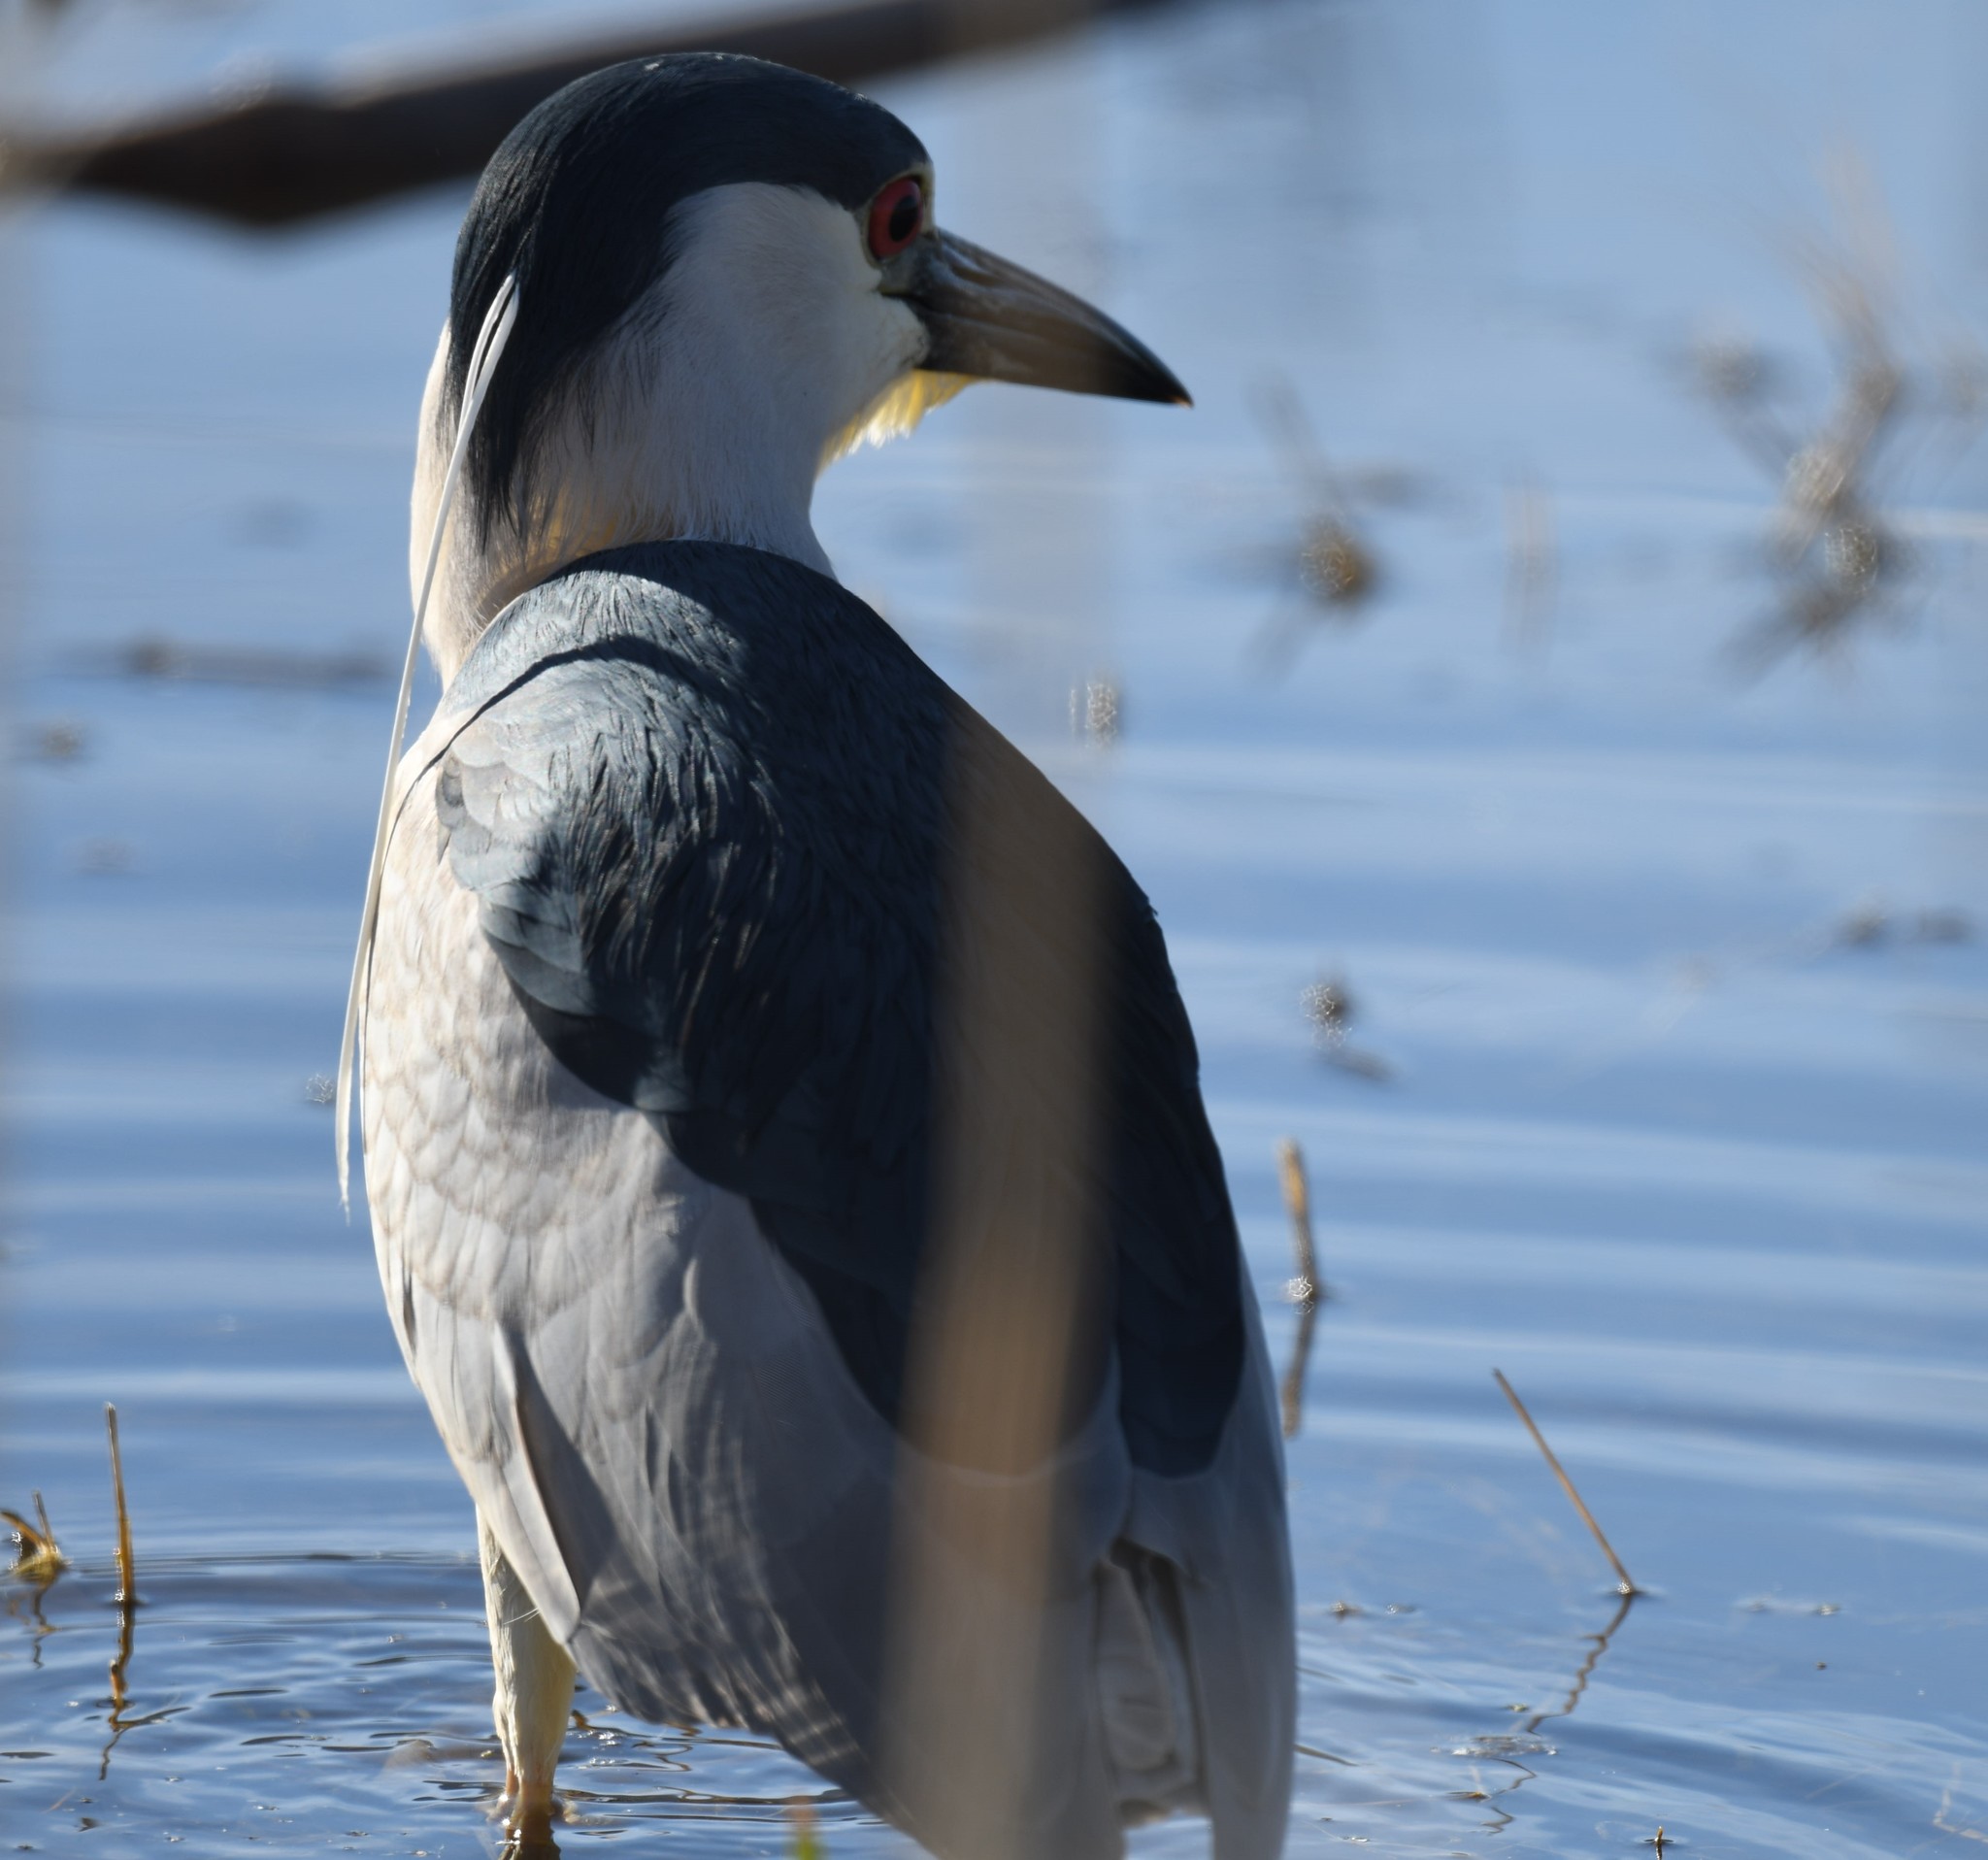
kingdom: Animalia
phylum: Chordata
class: Aves
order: Pelecaniformes
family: Ardeidae
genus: Nycticorax
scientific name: Nycticorax nycticorax
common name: Black-crowned night heron
